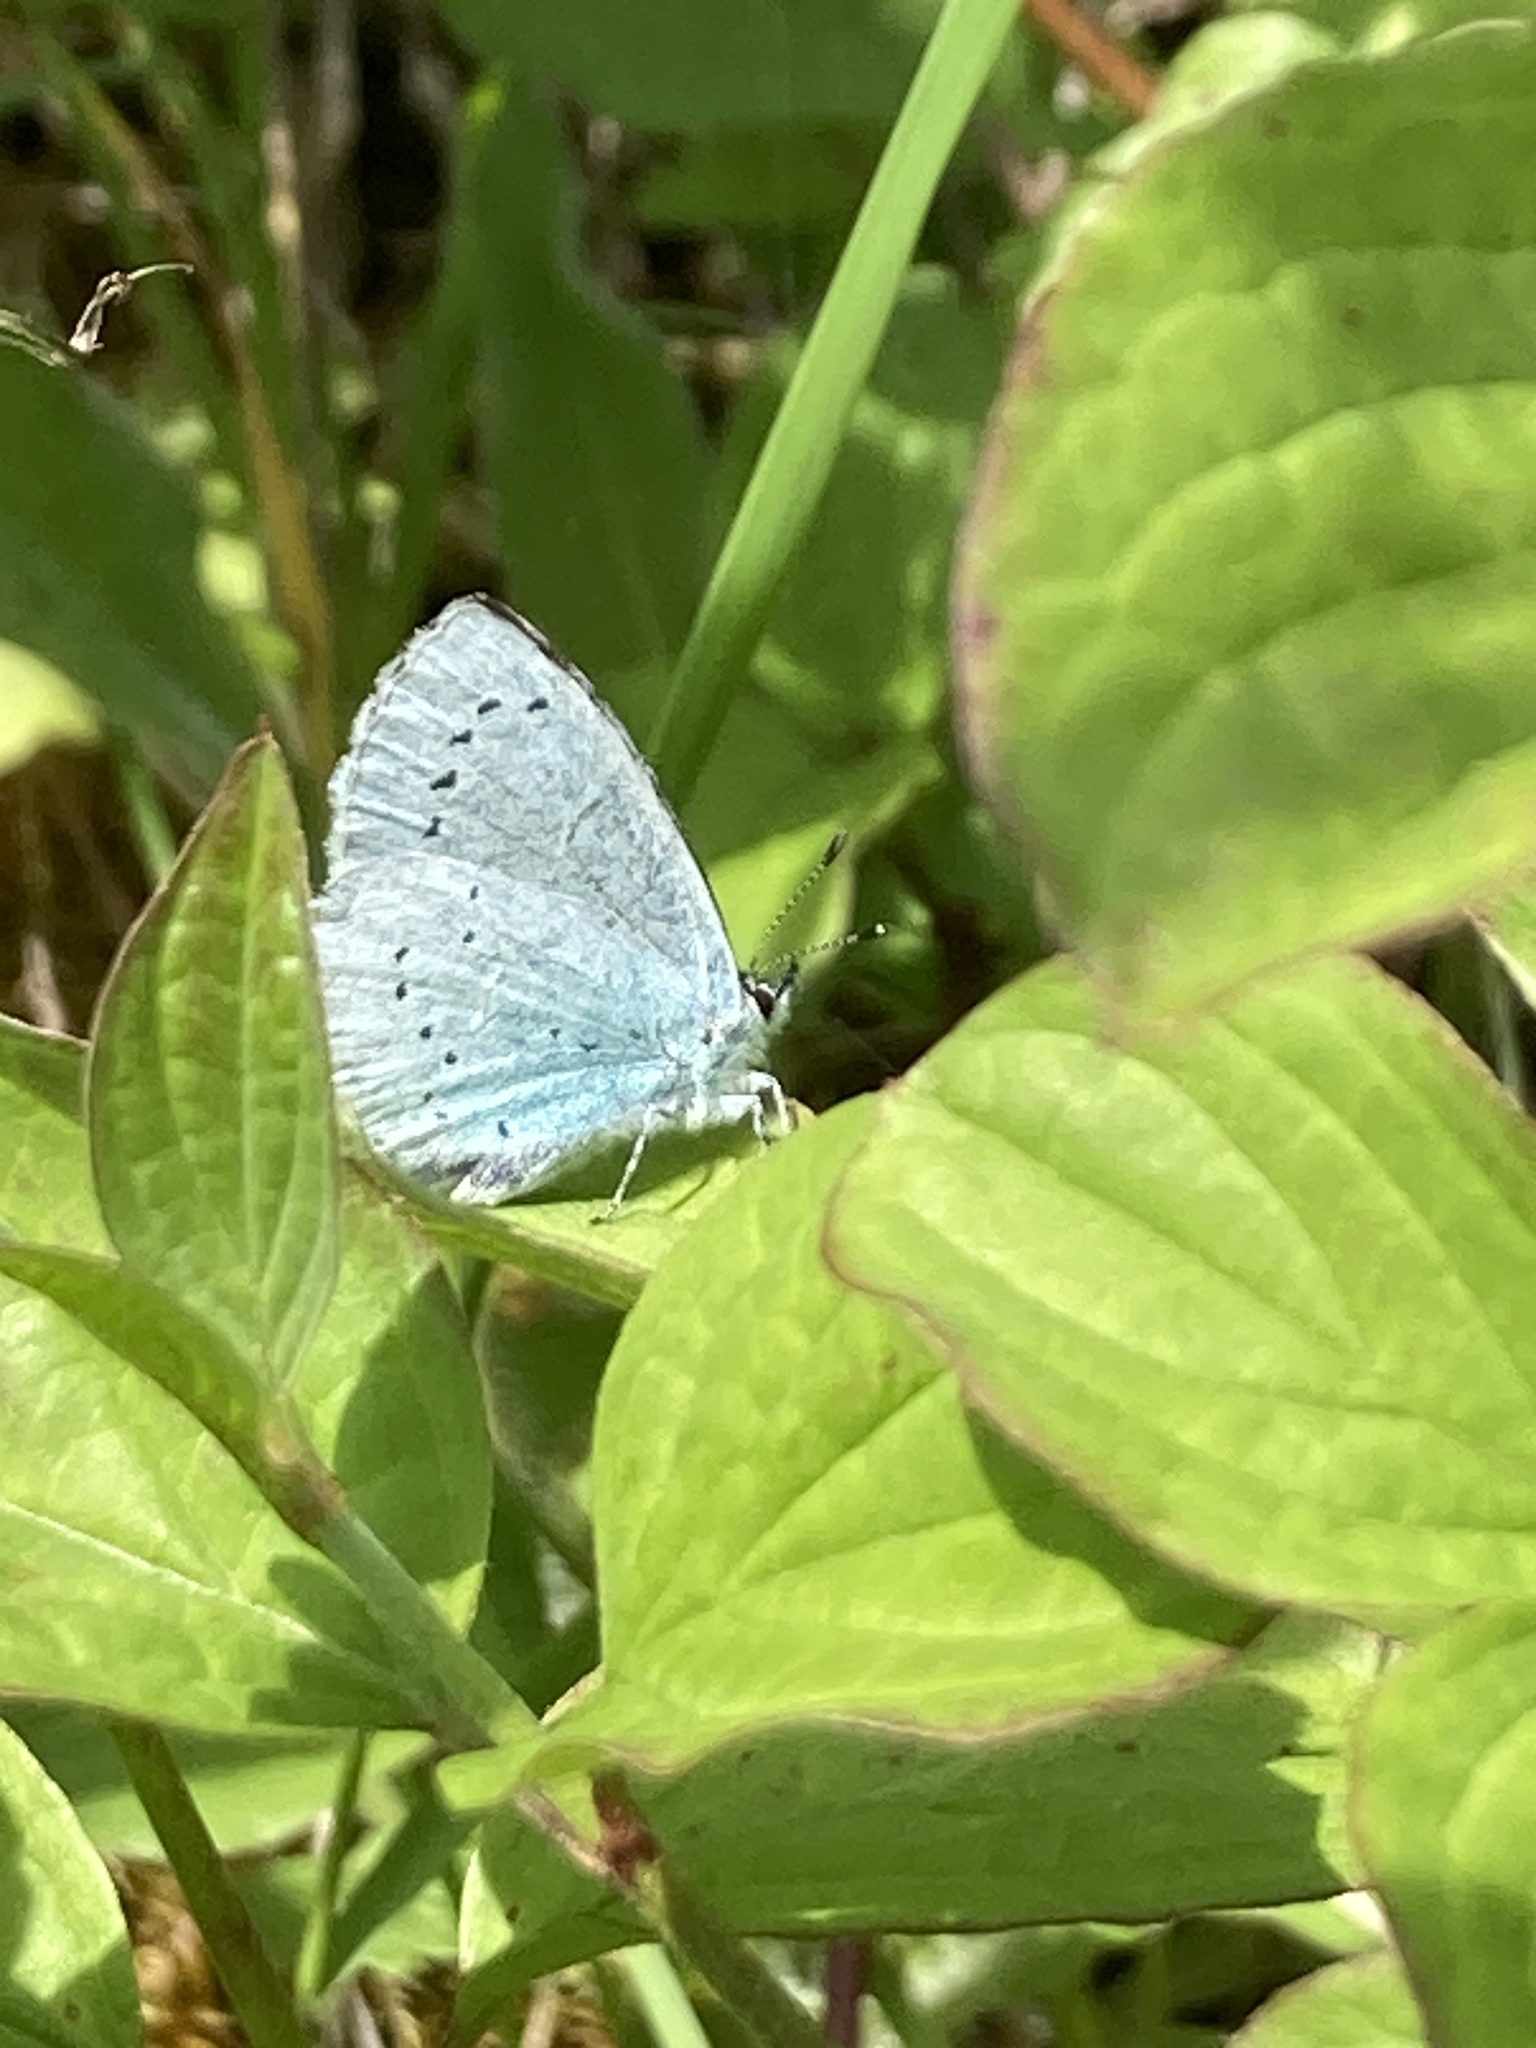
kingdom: Animalia
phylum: Arthropoda
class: Insecta
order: Lepidoptera
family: Lycaenidae
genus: Celastrina
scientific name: Celastrina argiolus
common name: Holly blue
